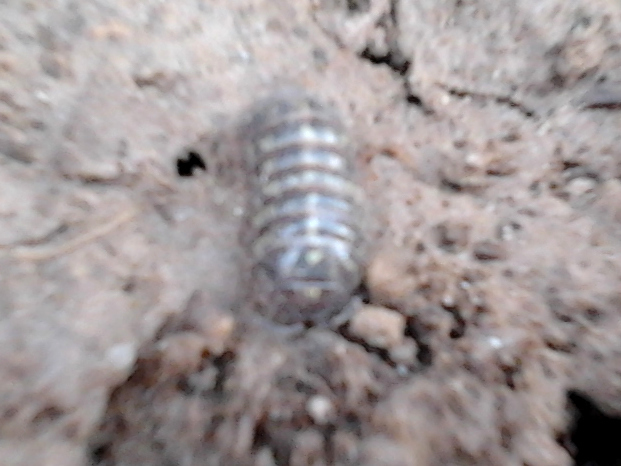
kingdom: Animalia
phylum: Arthropoda
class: Malacostraca
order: Isopoda
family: Armadillidiidae
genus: Armadillidium
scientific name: Armadillidium vulgare
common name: Common pill woodlouse
